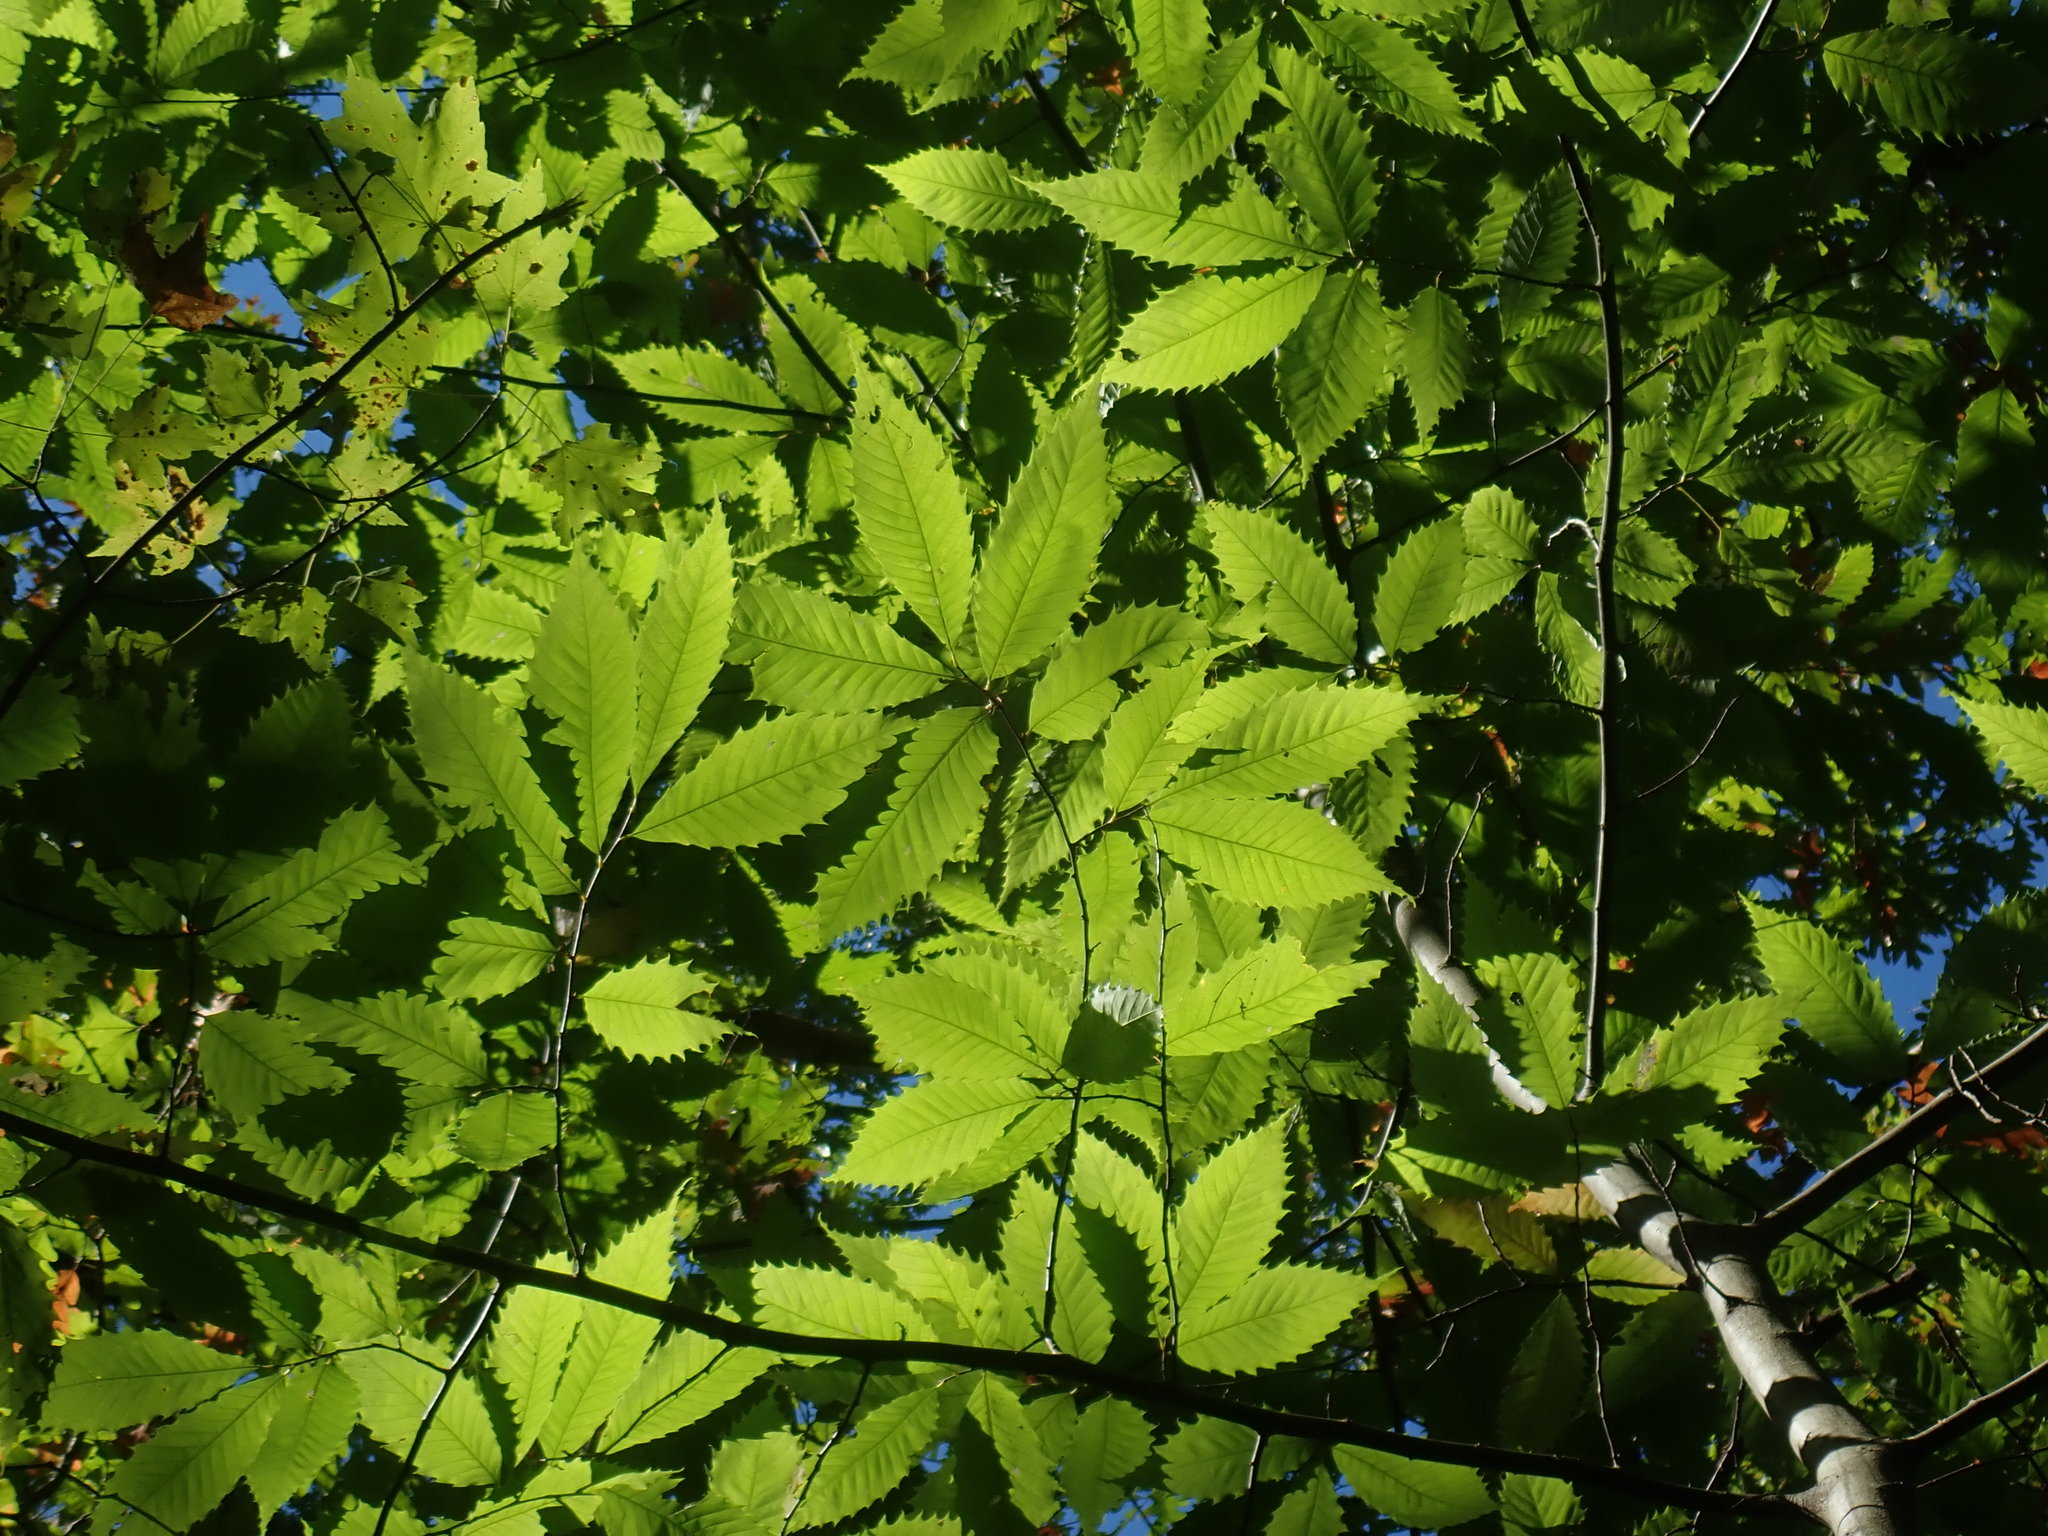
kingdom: Plantae
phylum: Tracheophyta
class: Magnoliopsida
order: Fagales
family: Fagaceae
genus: Castanea
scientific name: Castanea dentata
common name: American chestnut
